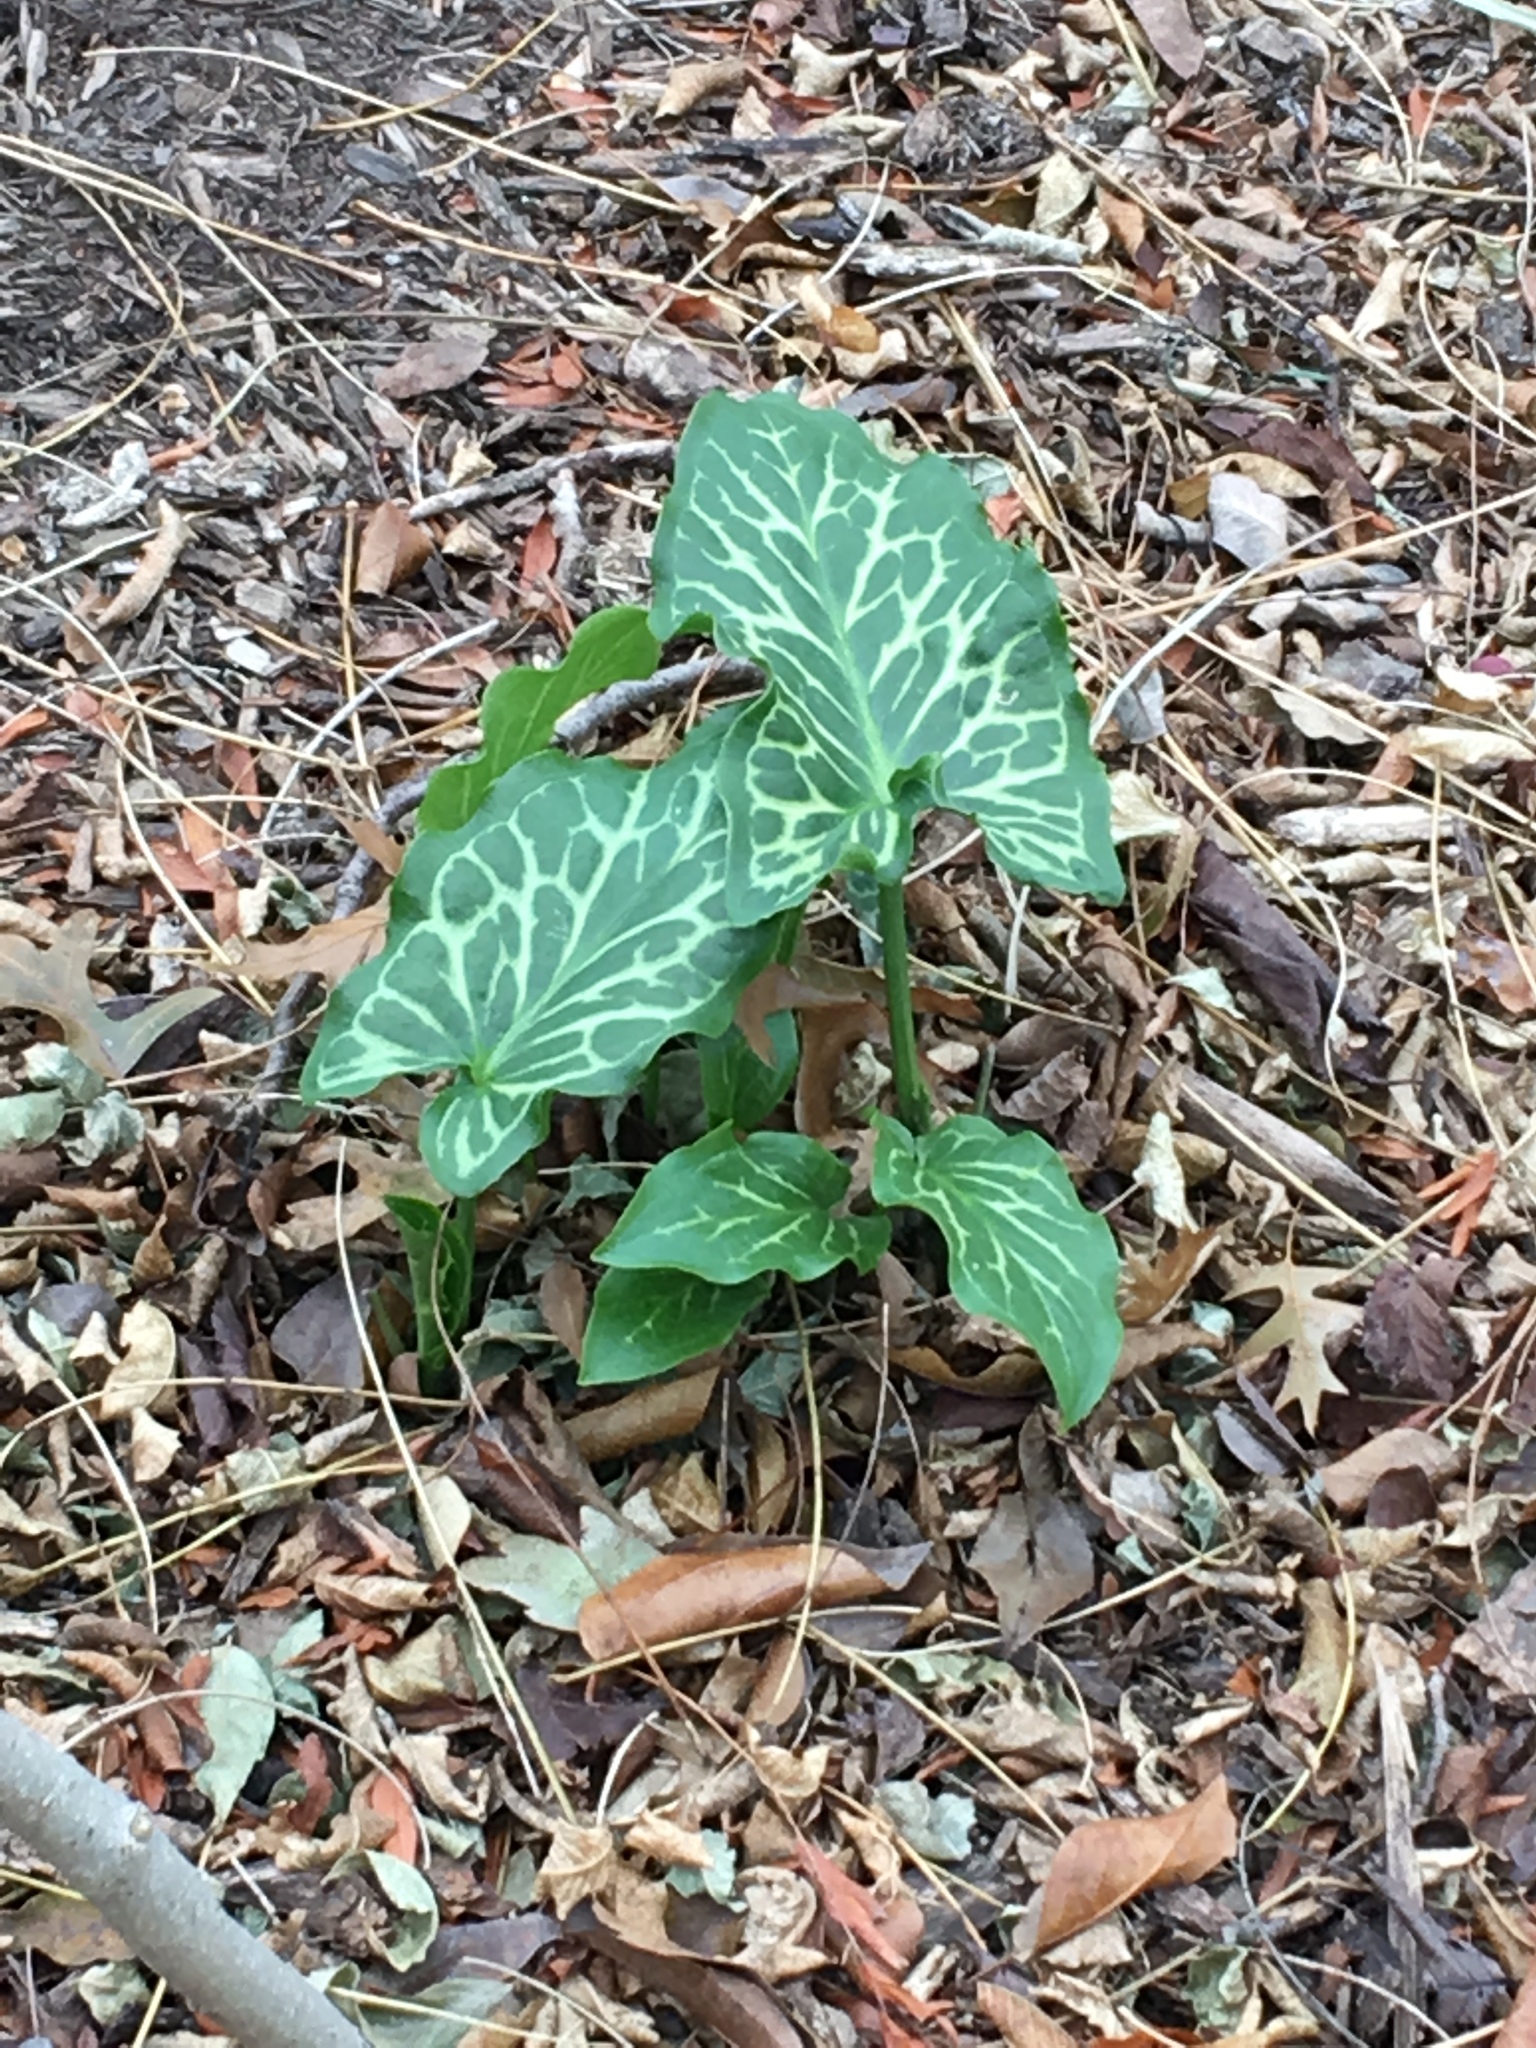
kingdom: Plantae
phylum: Tracheophyta
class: Liliopsida
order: Alismatales
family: Araceae
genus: Arum
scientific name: Arum italicum
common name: Italian lords-and-ladies
